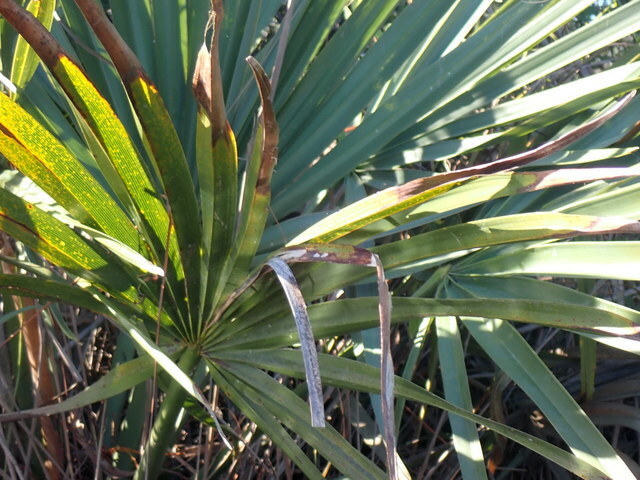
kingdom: Plantae
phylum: Tracheophyta
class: Liliopsida
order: Arecales
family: Arecaceae
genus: Sabal
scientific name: Sabal minor
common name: Dwarf palmetto
